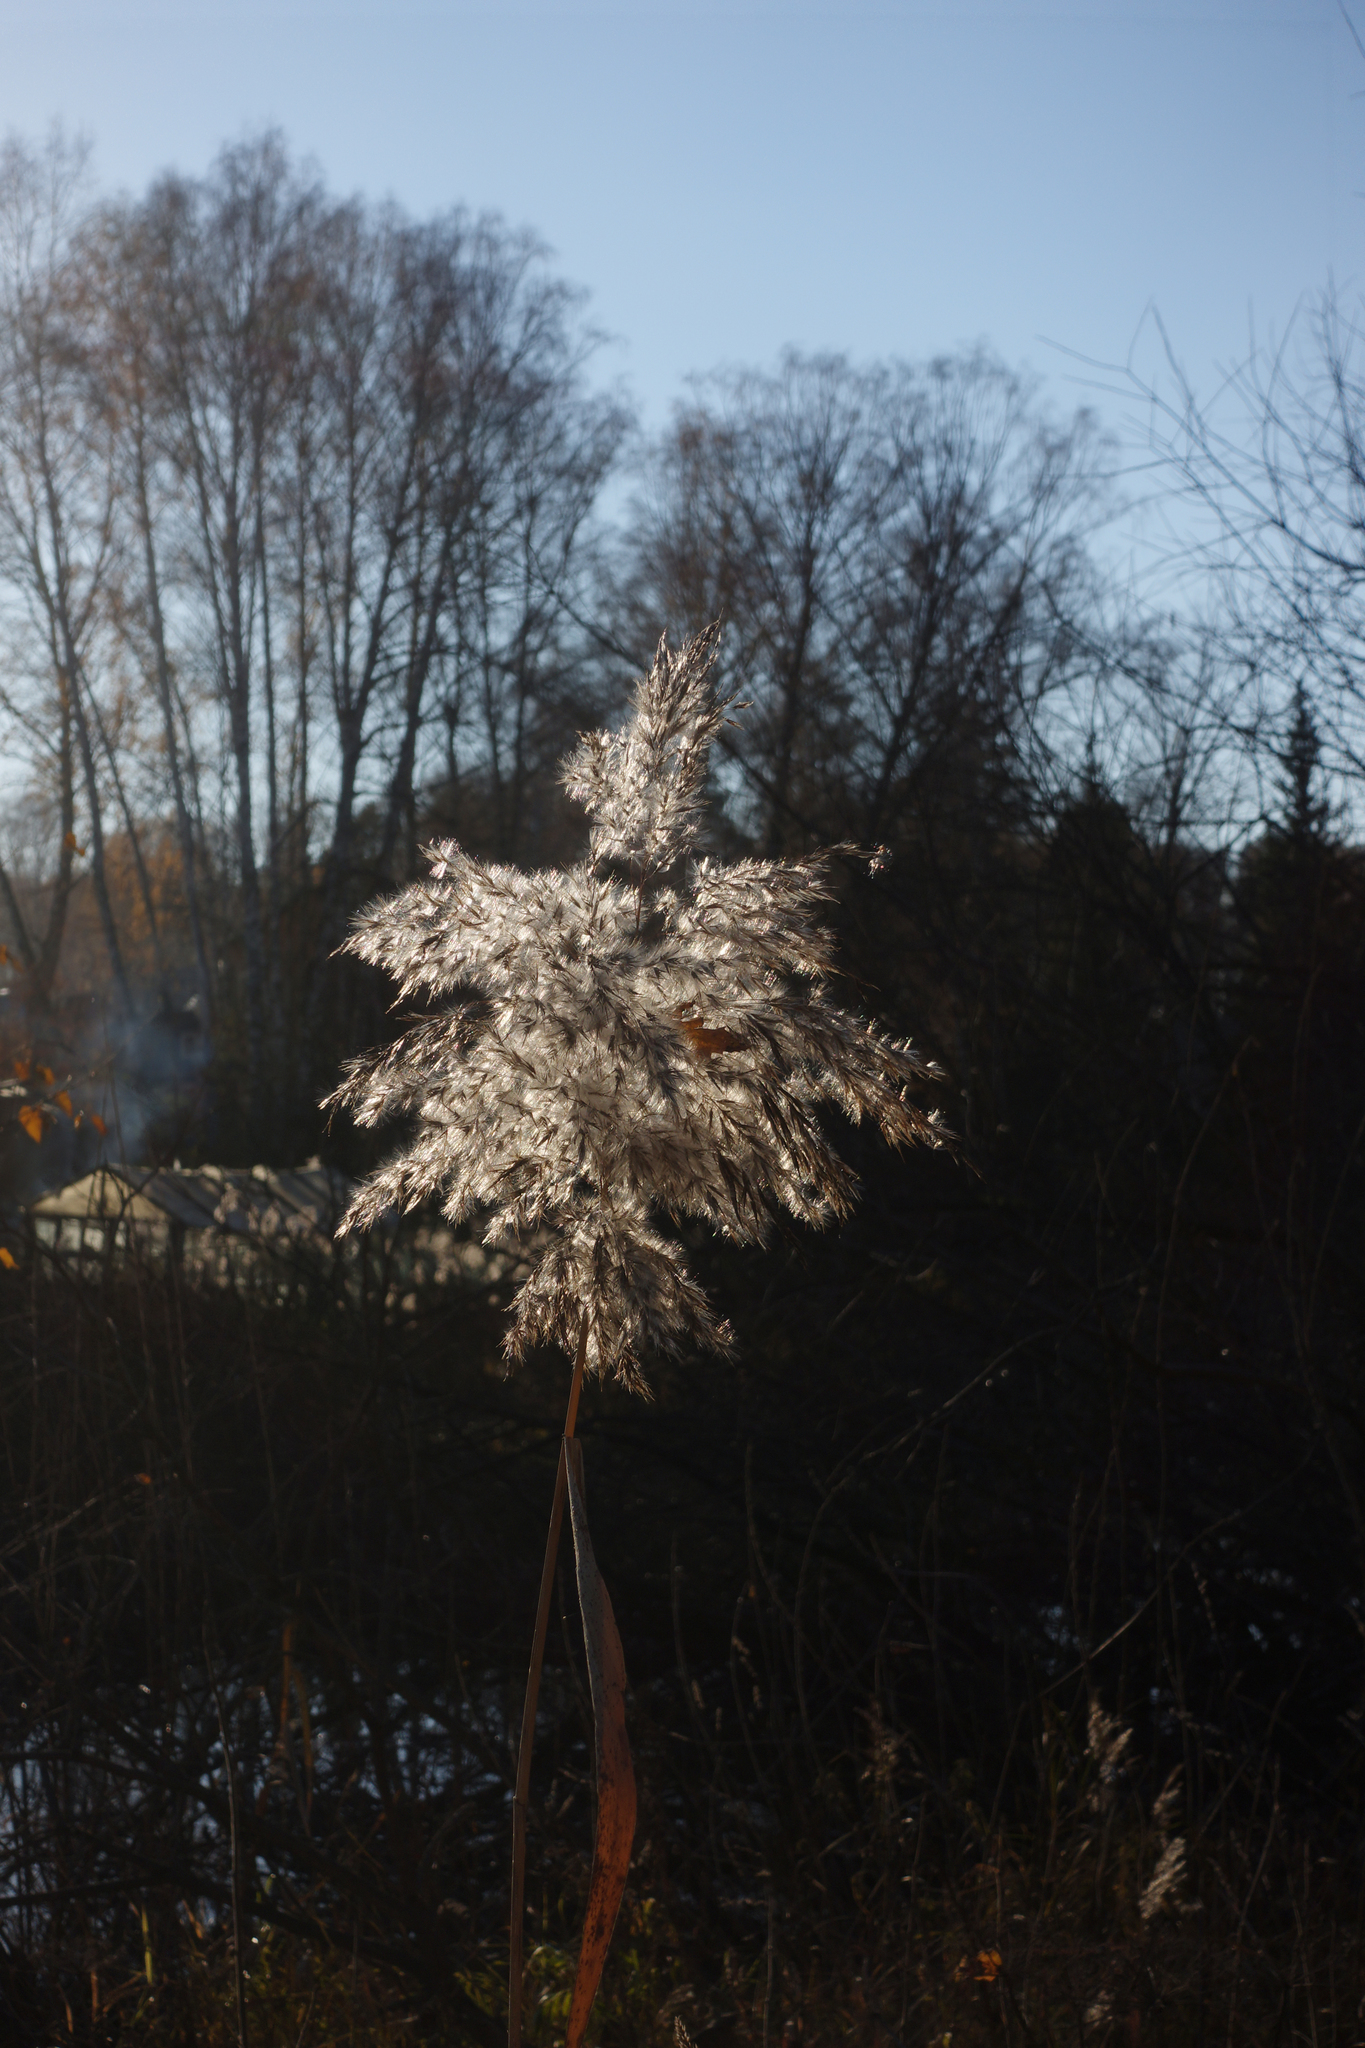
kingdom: Plantae
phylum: Tracheophyta
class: Liliopsida
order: Poales
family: Poaceae
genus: Phragmites
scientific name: Phragmites australis
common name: Common reed
